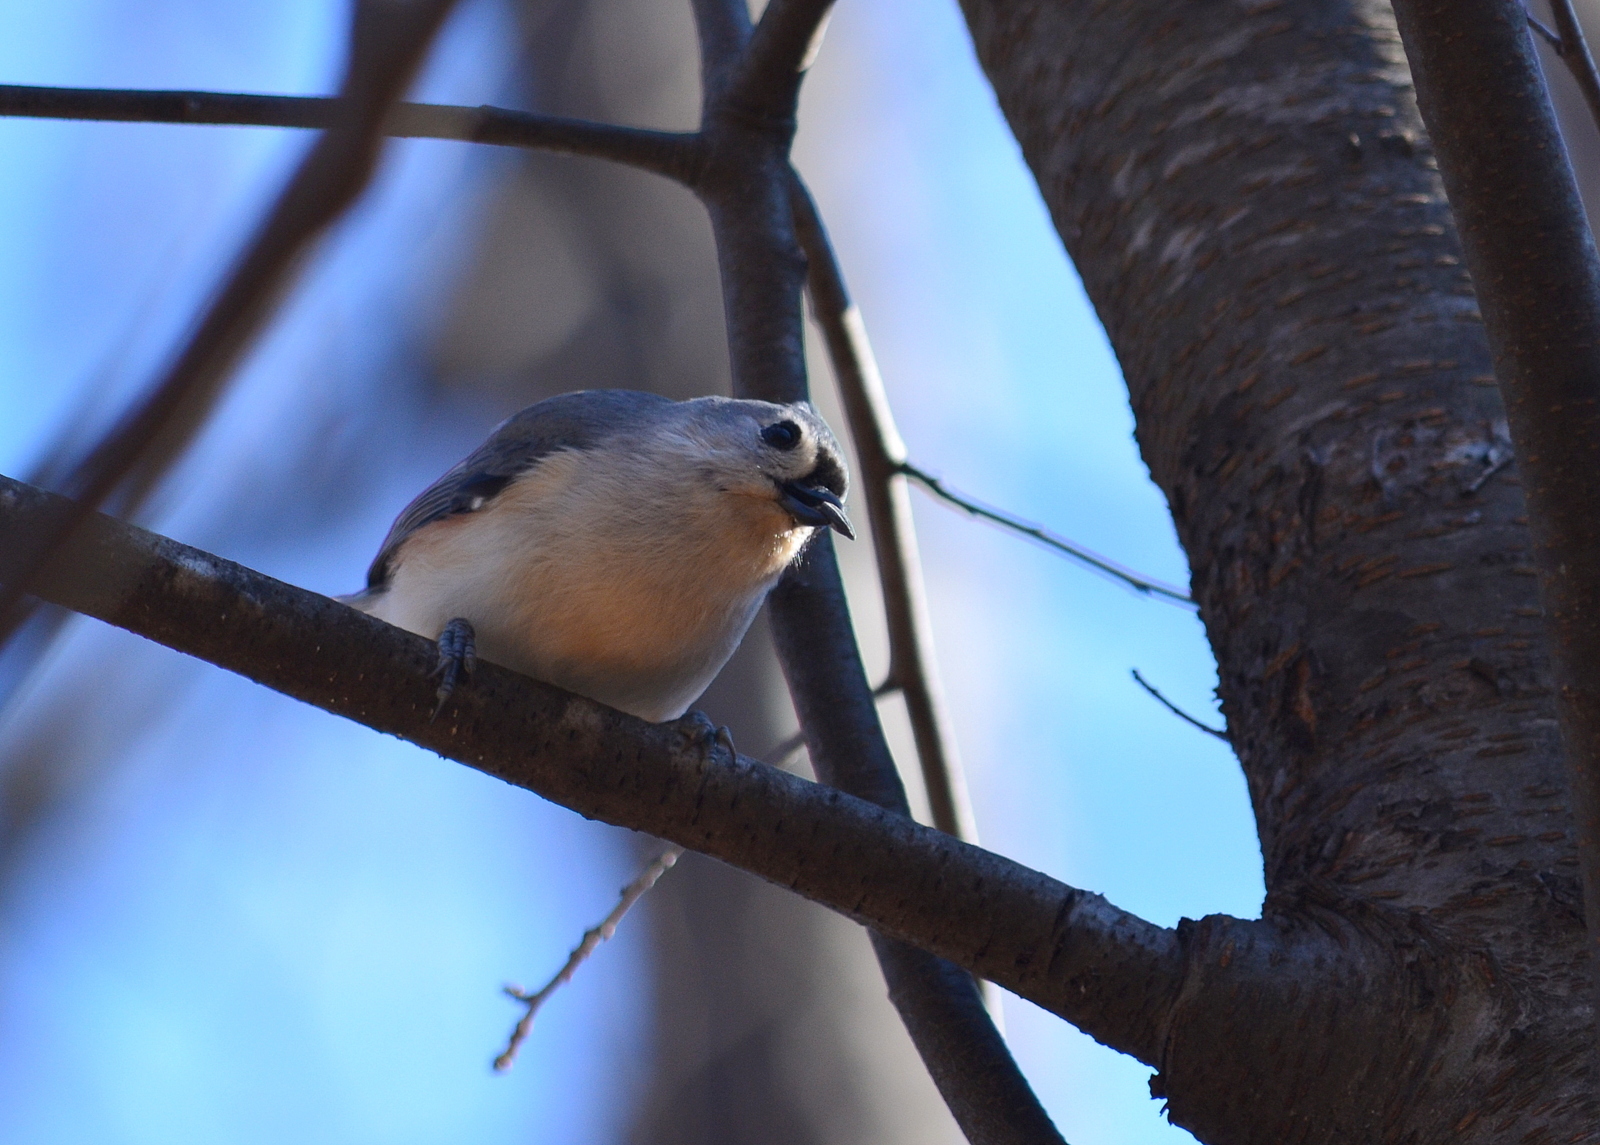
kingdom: Animalia
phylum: Chordata
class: Aves
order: Passeriformes
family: Paridae
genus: Baeolophus
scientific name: Baeolophus bicolor
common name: Tufted titmouse
